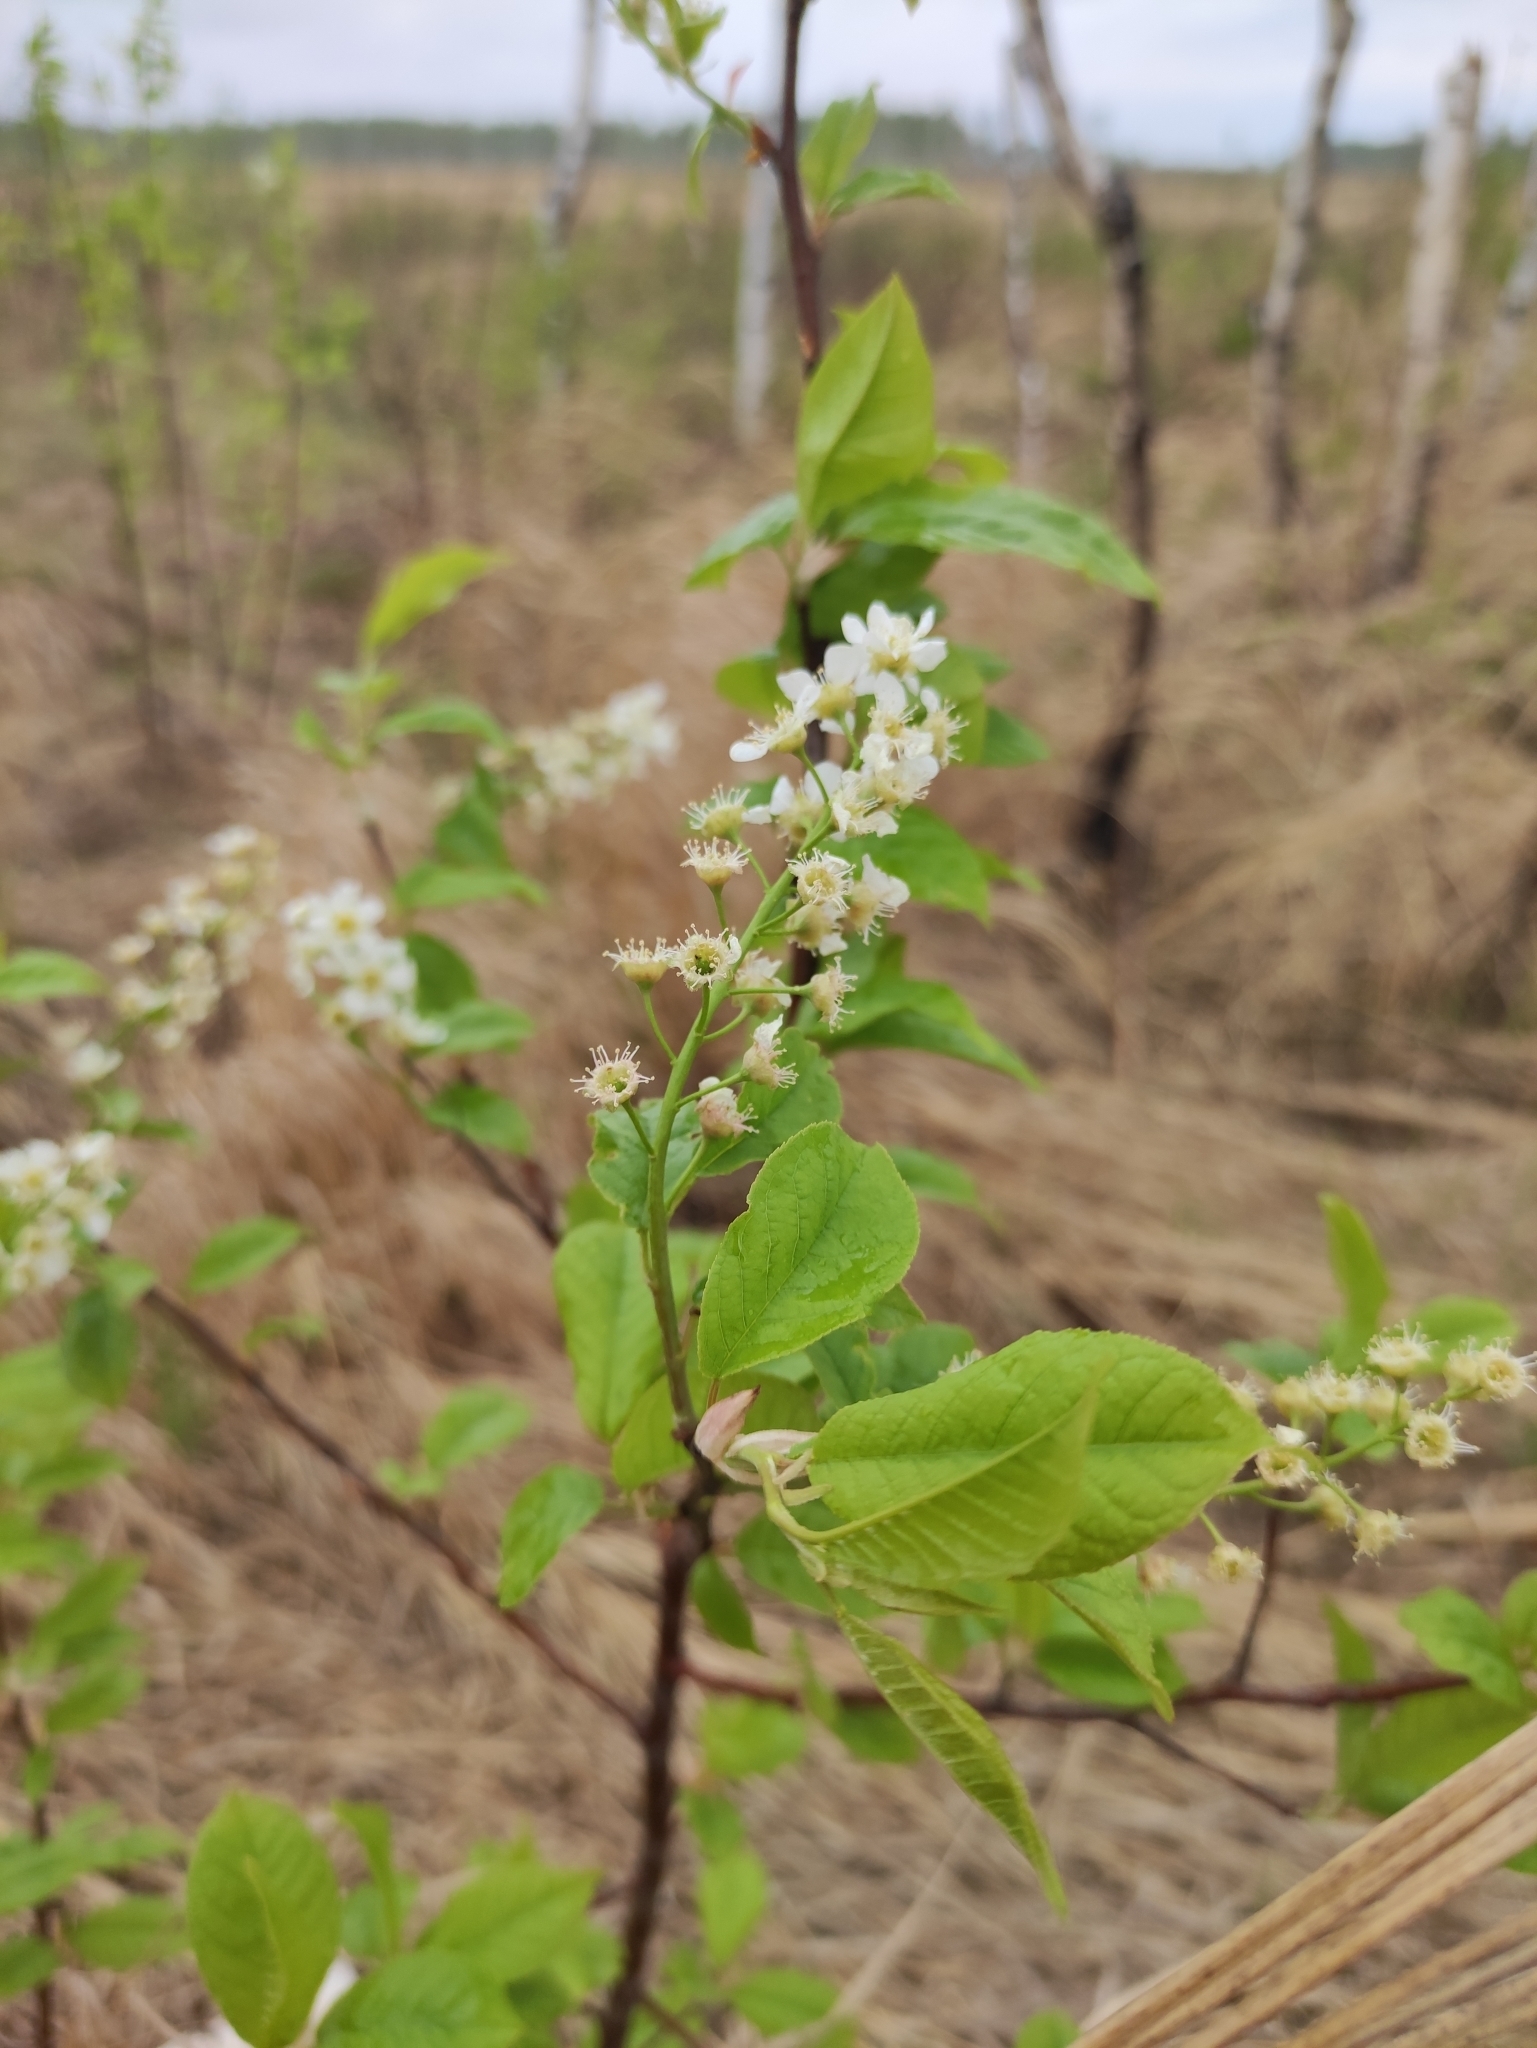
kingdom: Plantae
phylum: Tracheophyta
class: Magnoliopsida
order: Rosales
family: Rosaceae
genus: Prunus
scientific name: Prunus padus
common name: Bird cherry
